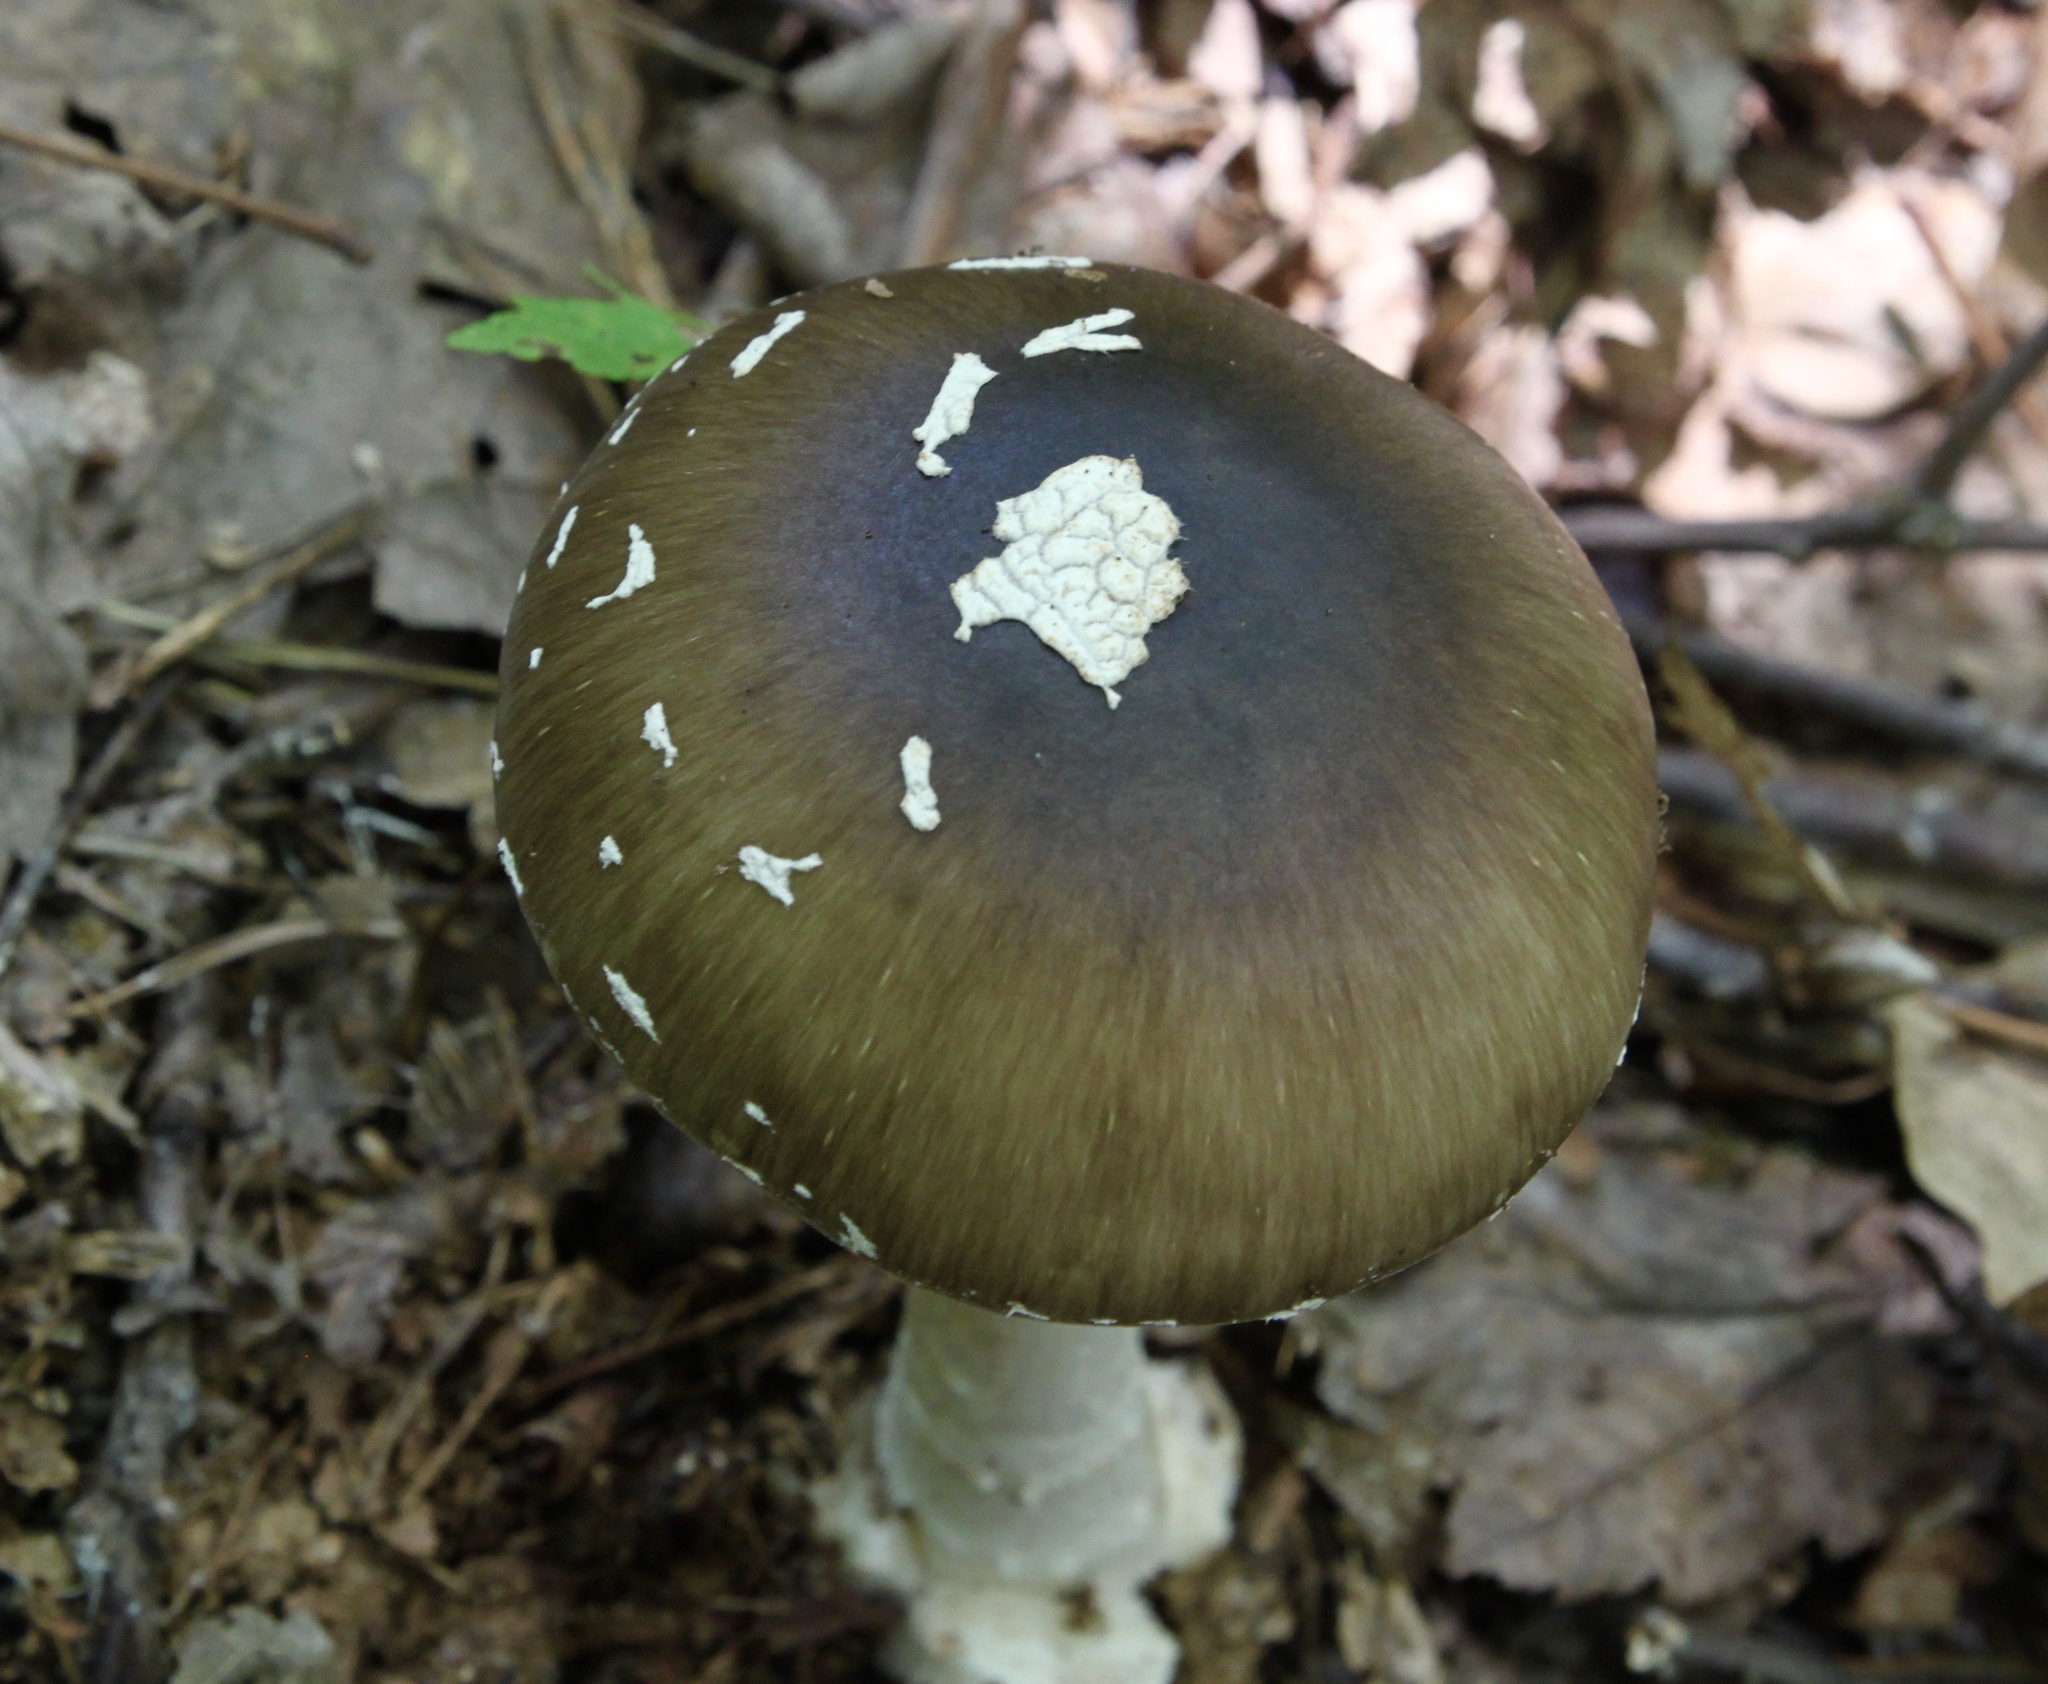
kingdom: Fungi
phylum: Basidiomycota
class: Agaricomycetes
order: Agaricales
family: Amanitaceae
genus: Amanita
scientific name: Amanita brunnescens
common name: Brown american star-footed amanita
